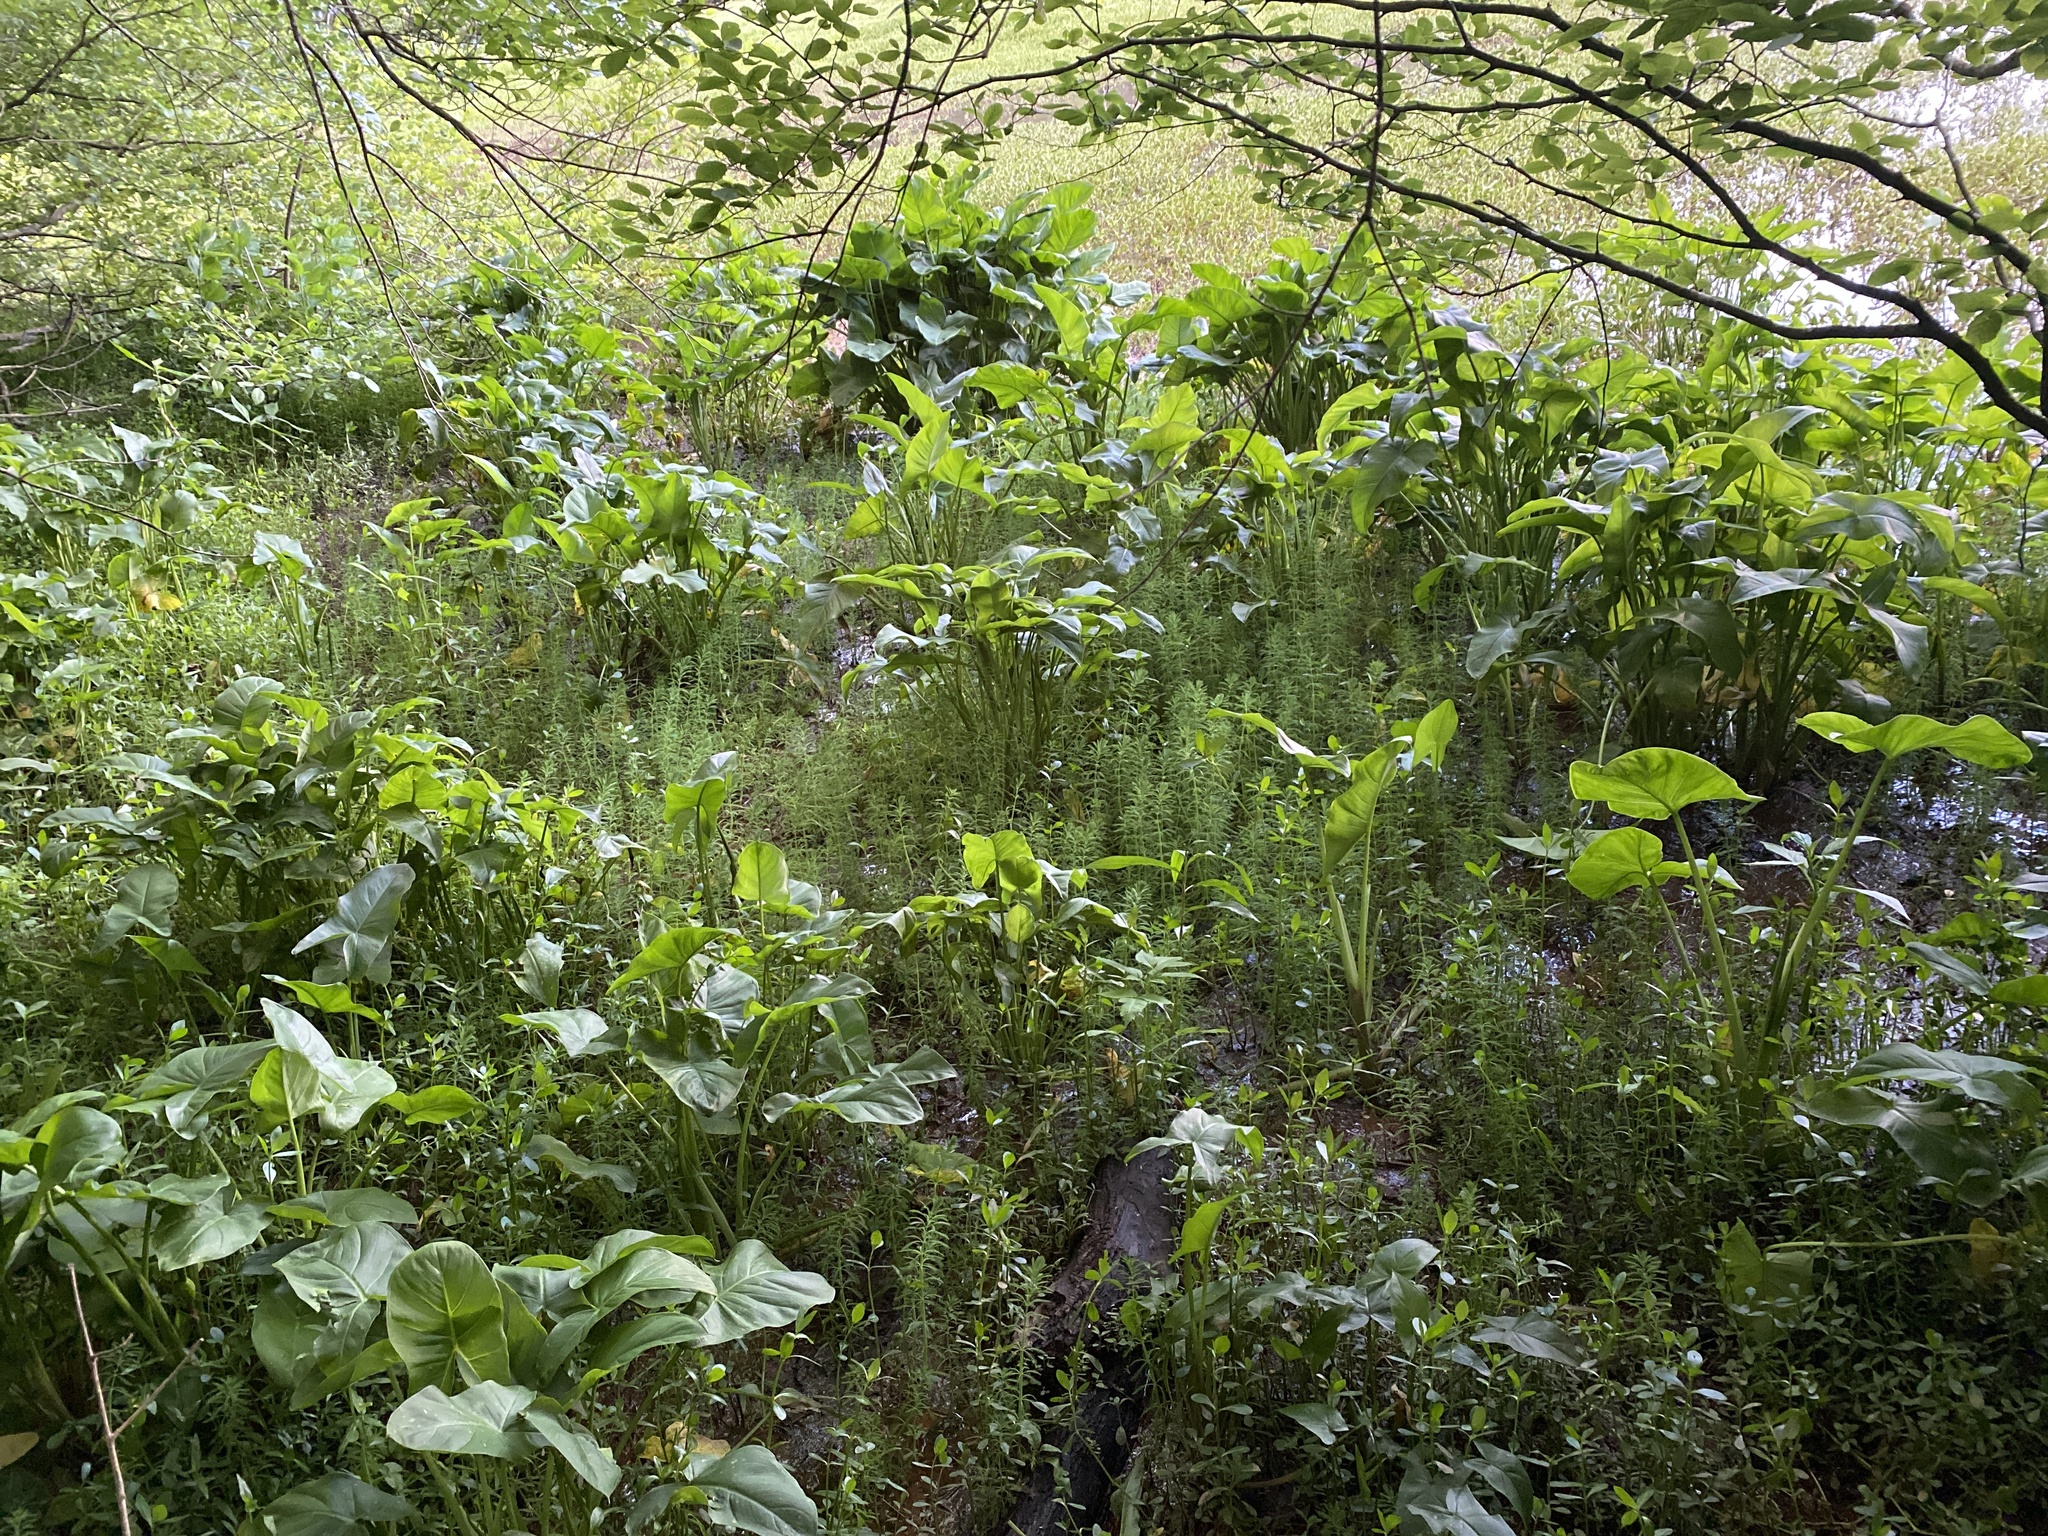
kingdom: Plantae
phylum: Tracheophyta
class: Liliopsida
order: Alismatales
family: Araceae
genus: Peltandra
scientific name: Peltandra virginica
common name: Arrow arum
